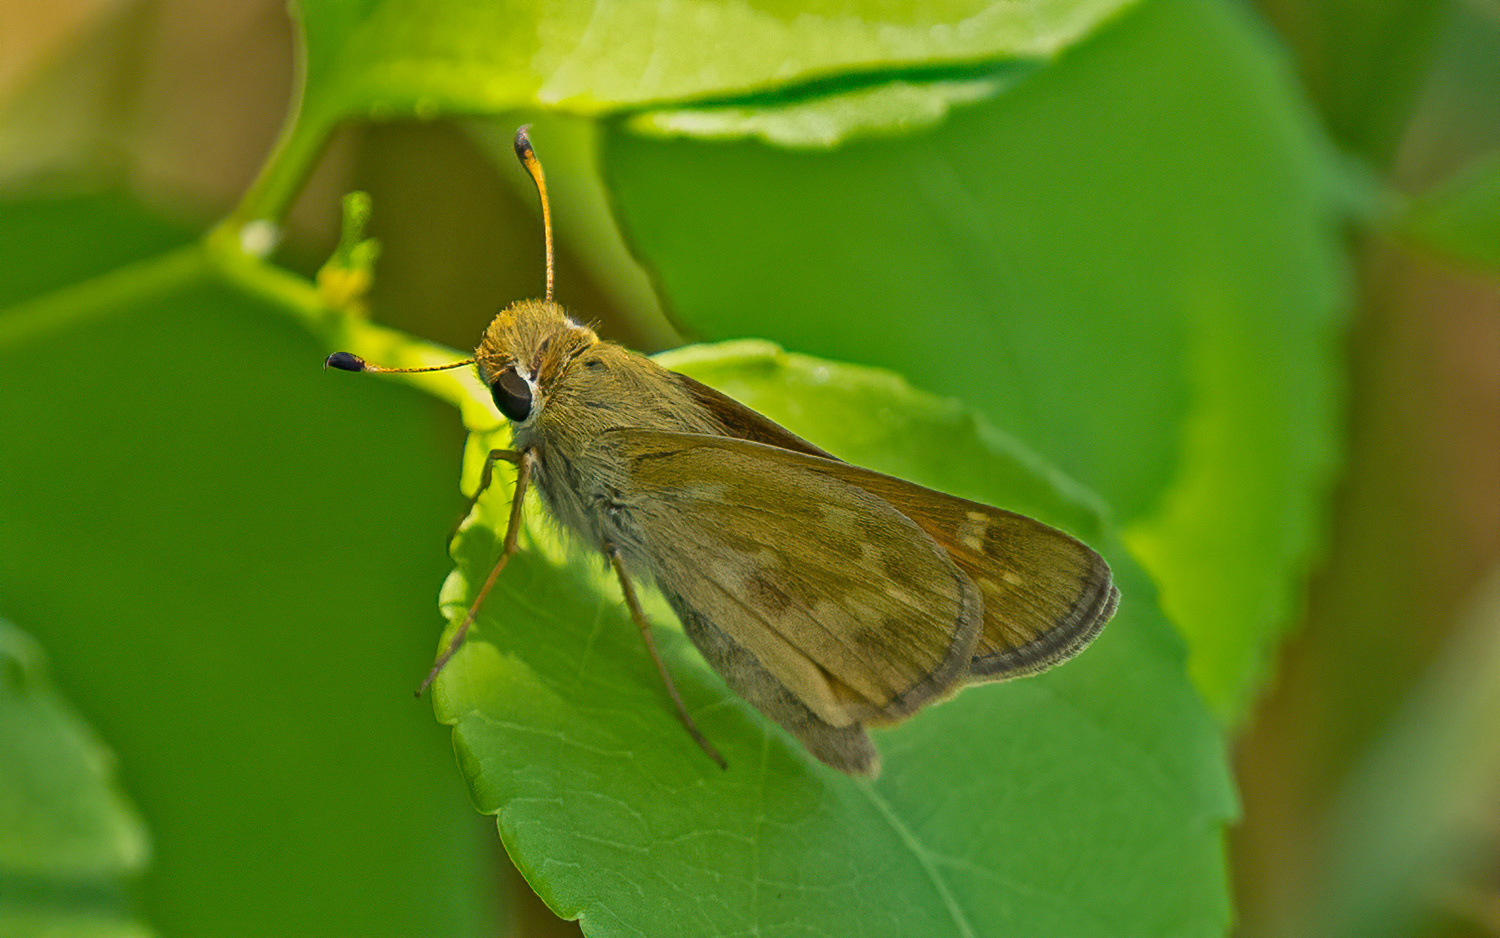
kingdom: Animalia
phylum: Arthropoda
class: Insecta
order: Lepidoptera
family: Hesperiidae
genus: Atalopedes
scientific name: Atalopedes
